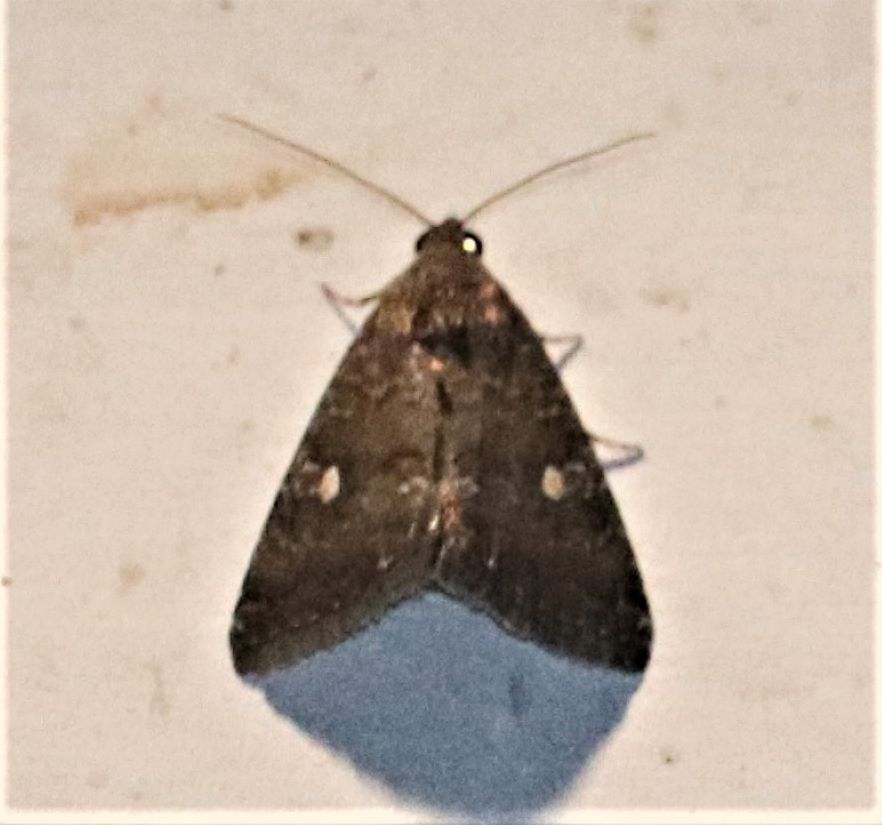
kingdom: Animalia
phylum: Arthropoda
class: Insecta
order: Lepidoptera
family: Noctuidae
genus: Amyna
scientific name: Amyna axis
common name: Cutworm
